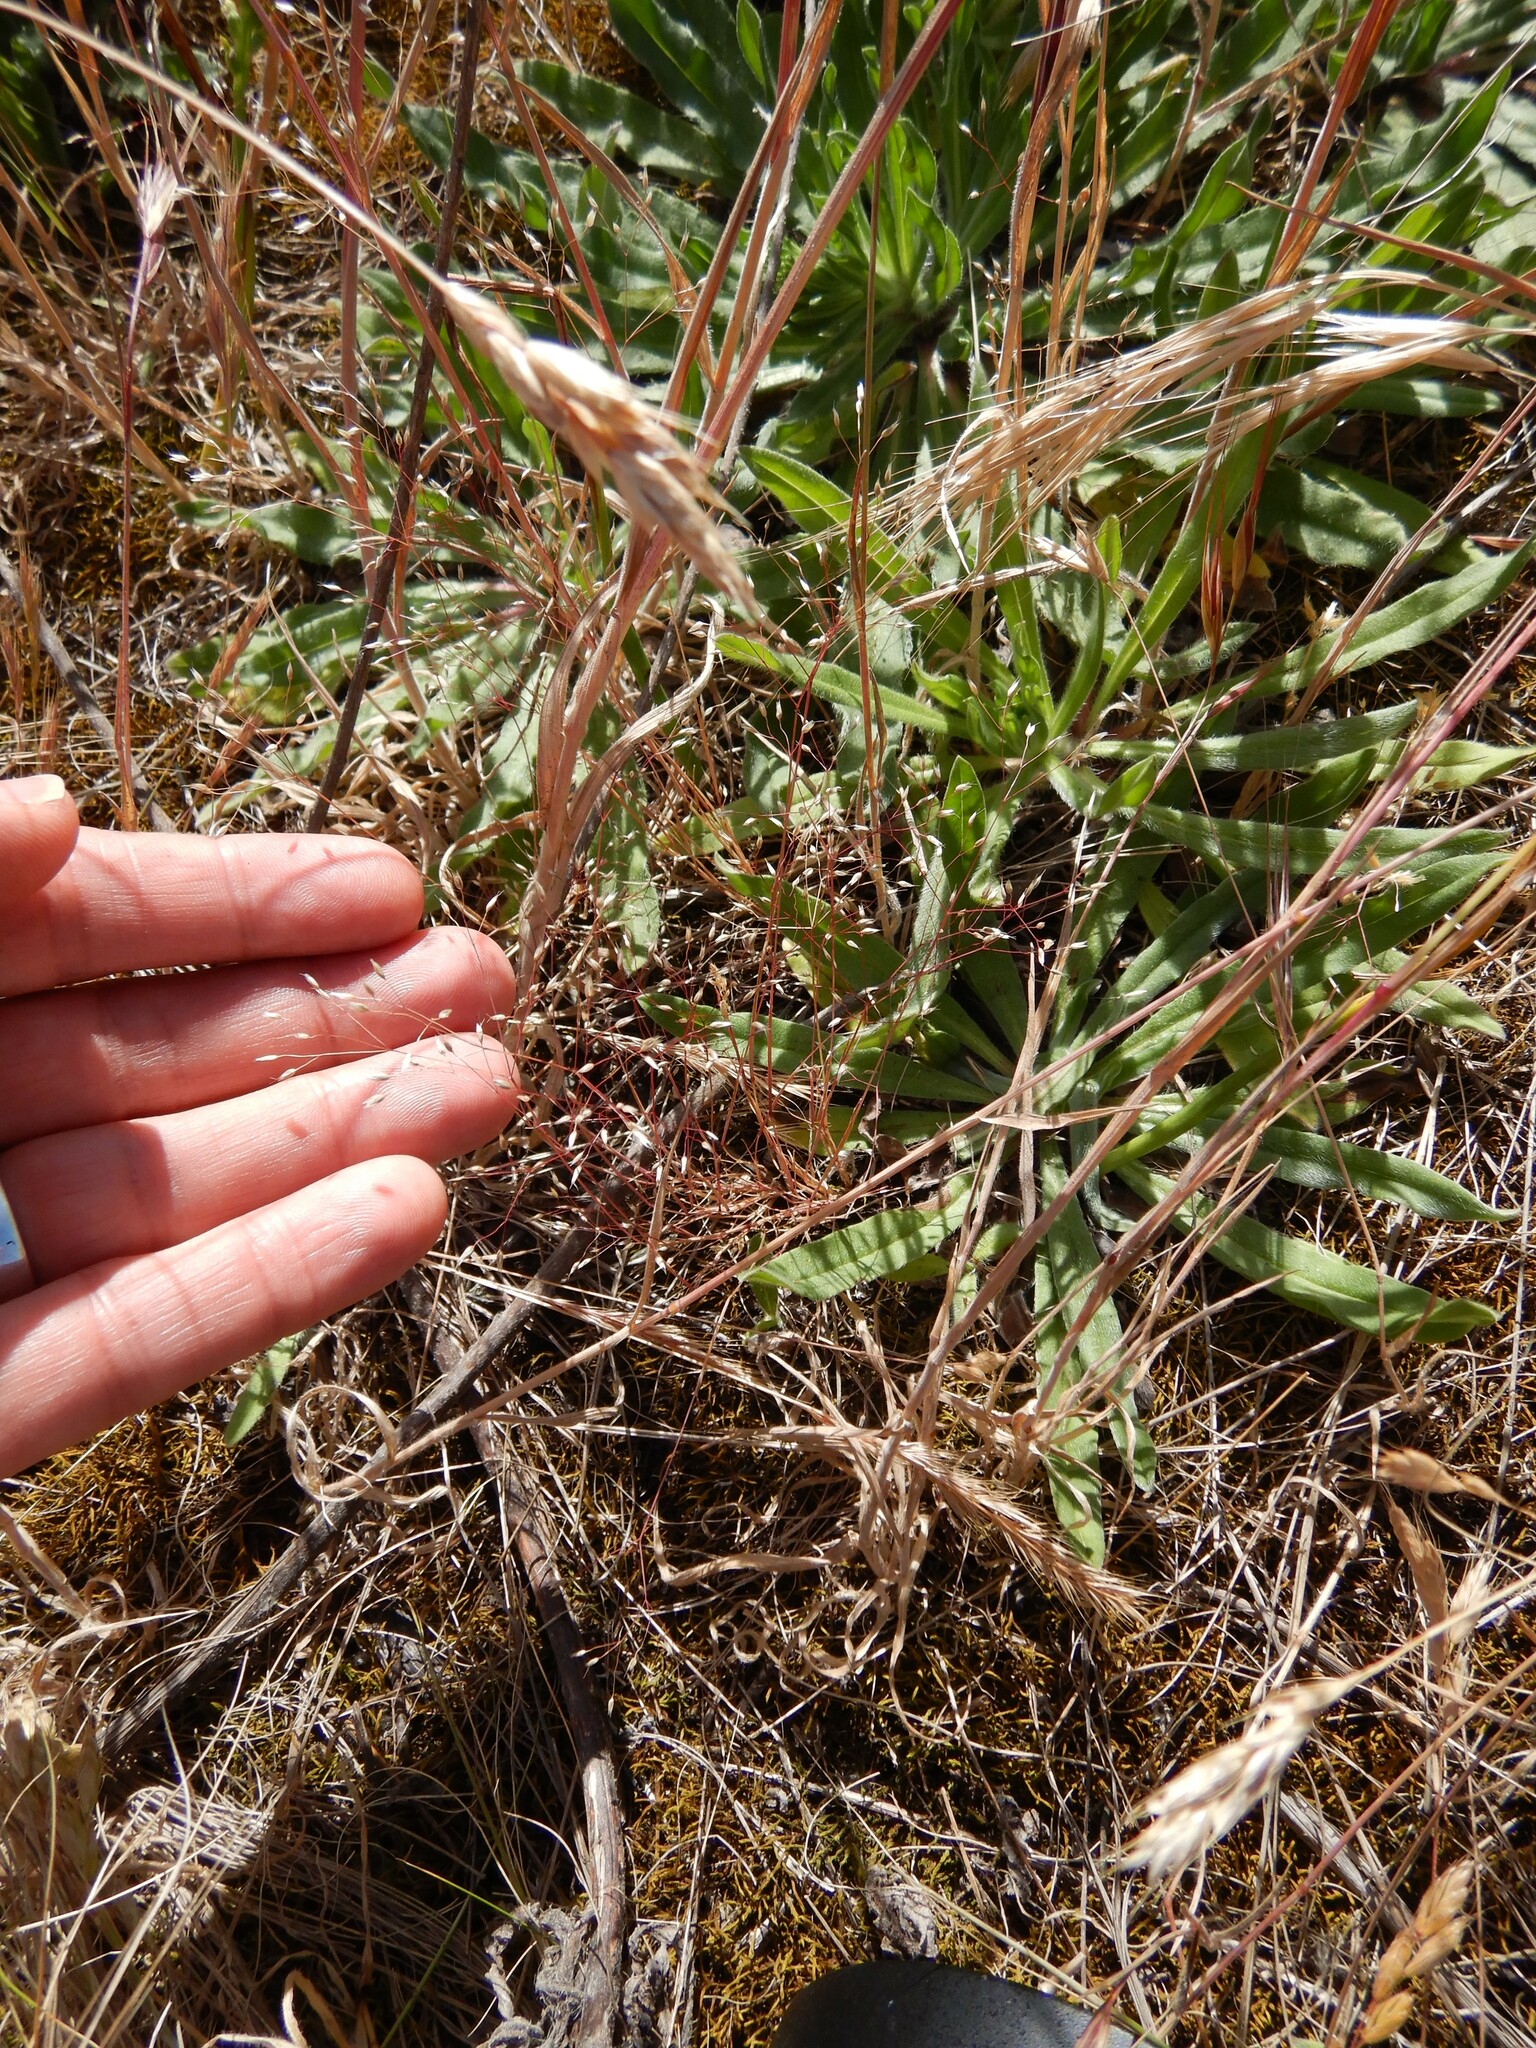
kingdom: Plantae
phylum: Tracheophyta
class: Liliopsida
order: Poales
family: Poaceae
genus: Aira
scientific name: Aira caryophyllea
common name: Silver hairgrass
